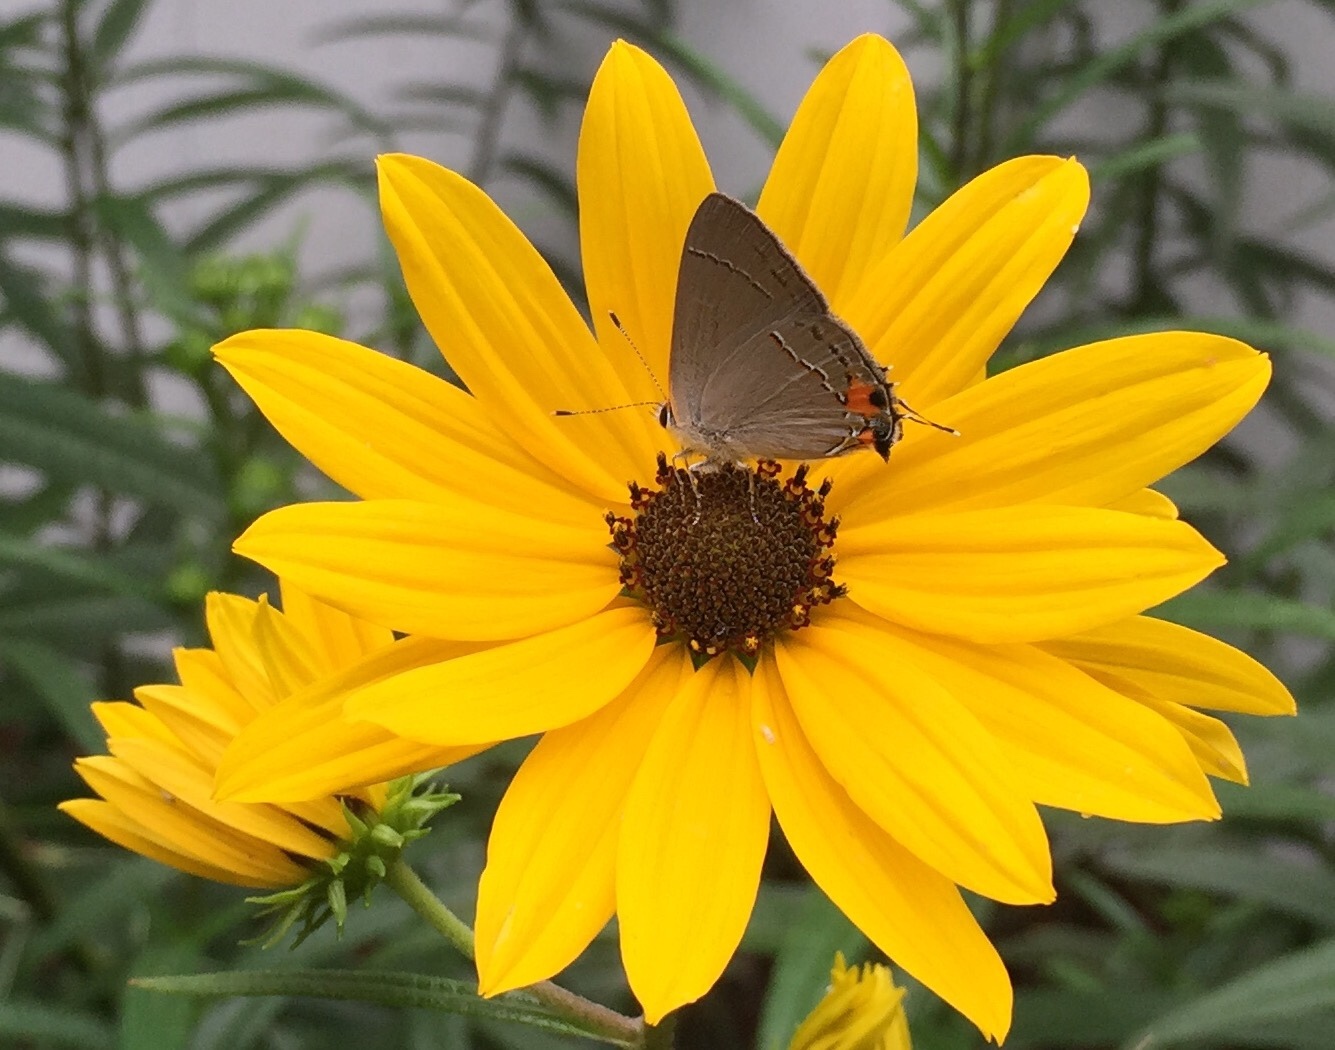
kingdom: Animalia
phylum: Arthropoda
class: Insecta
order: Lepidoptera
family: Lycaenidae
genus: Strymon
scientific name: Strymon melinus
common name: Gray hairstreak
